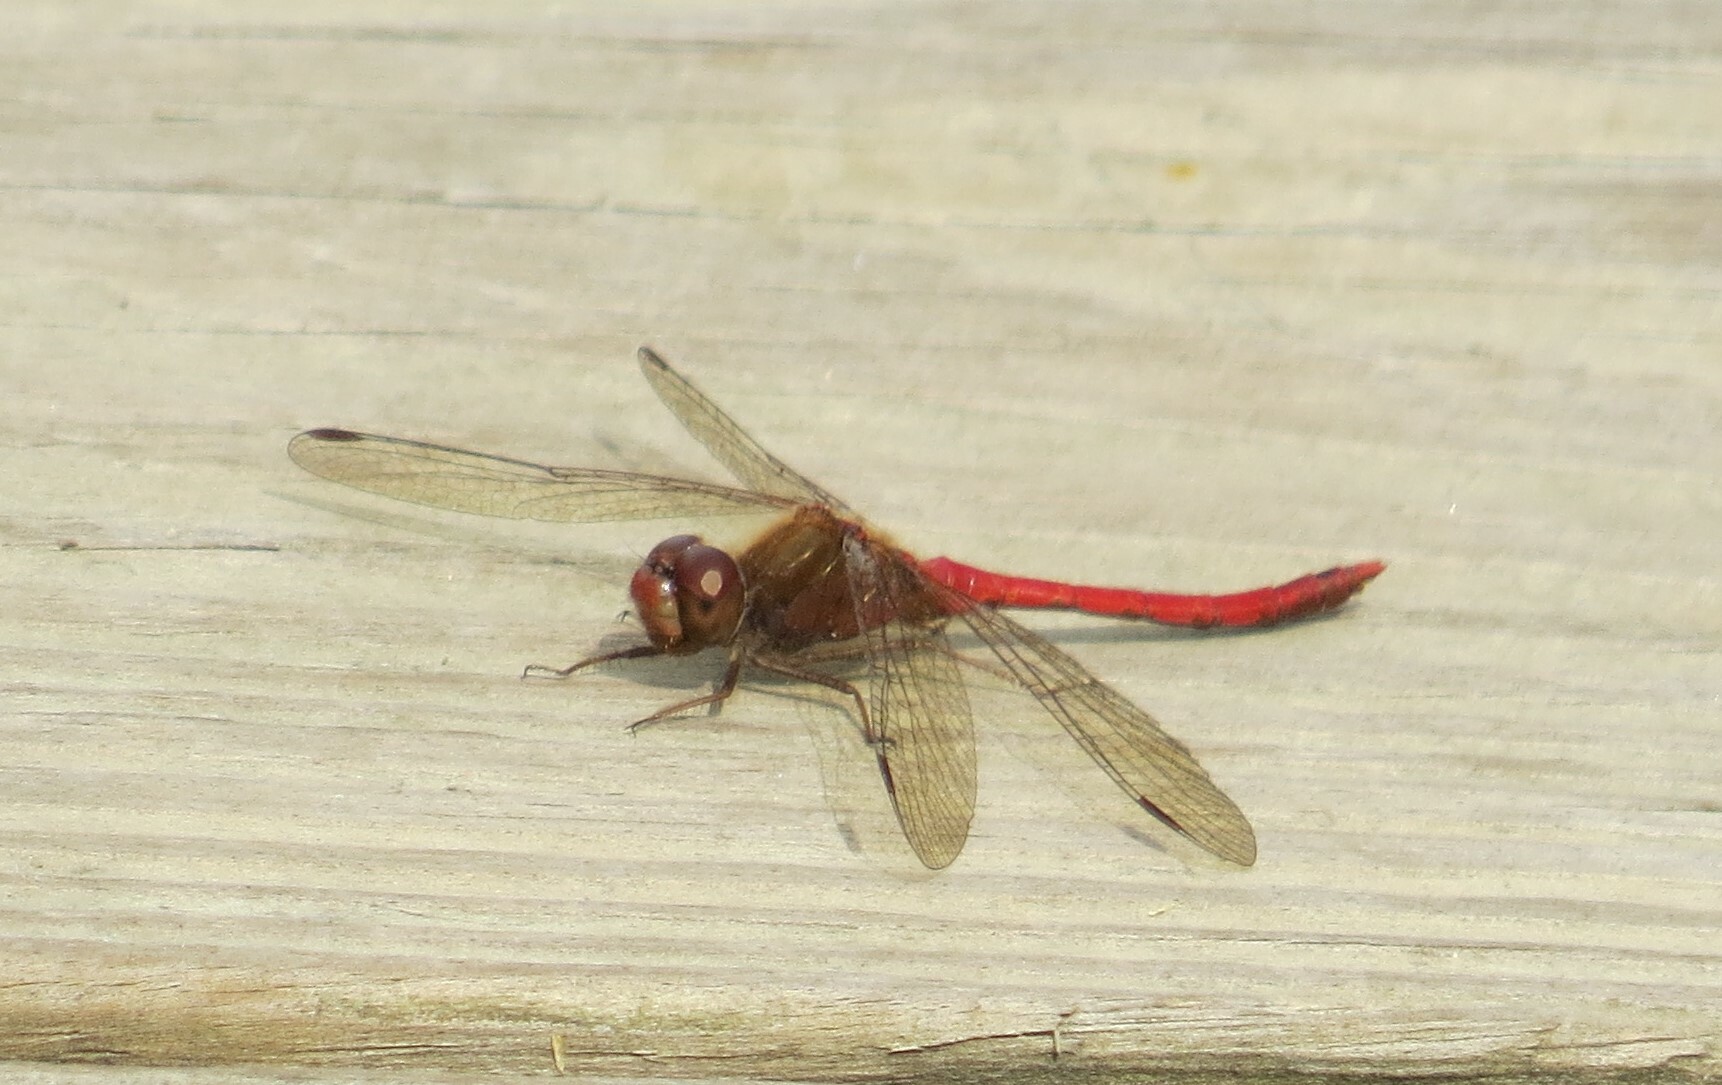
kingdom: Animalia
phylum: Arthropoda
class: Insecta
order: Odonata
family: Libellulidae
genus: Sympetrum
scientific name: Sympetrum vicinum
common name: Autumn meadowhawk
